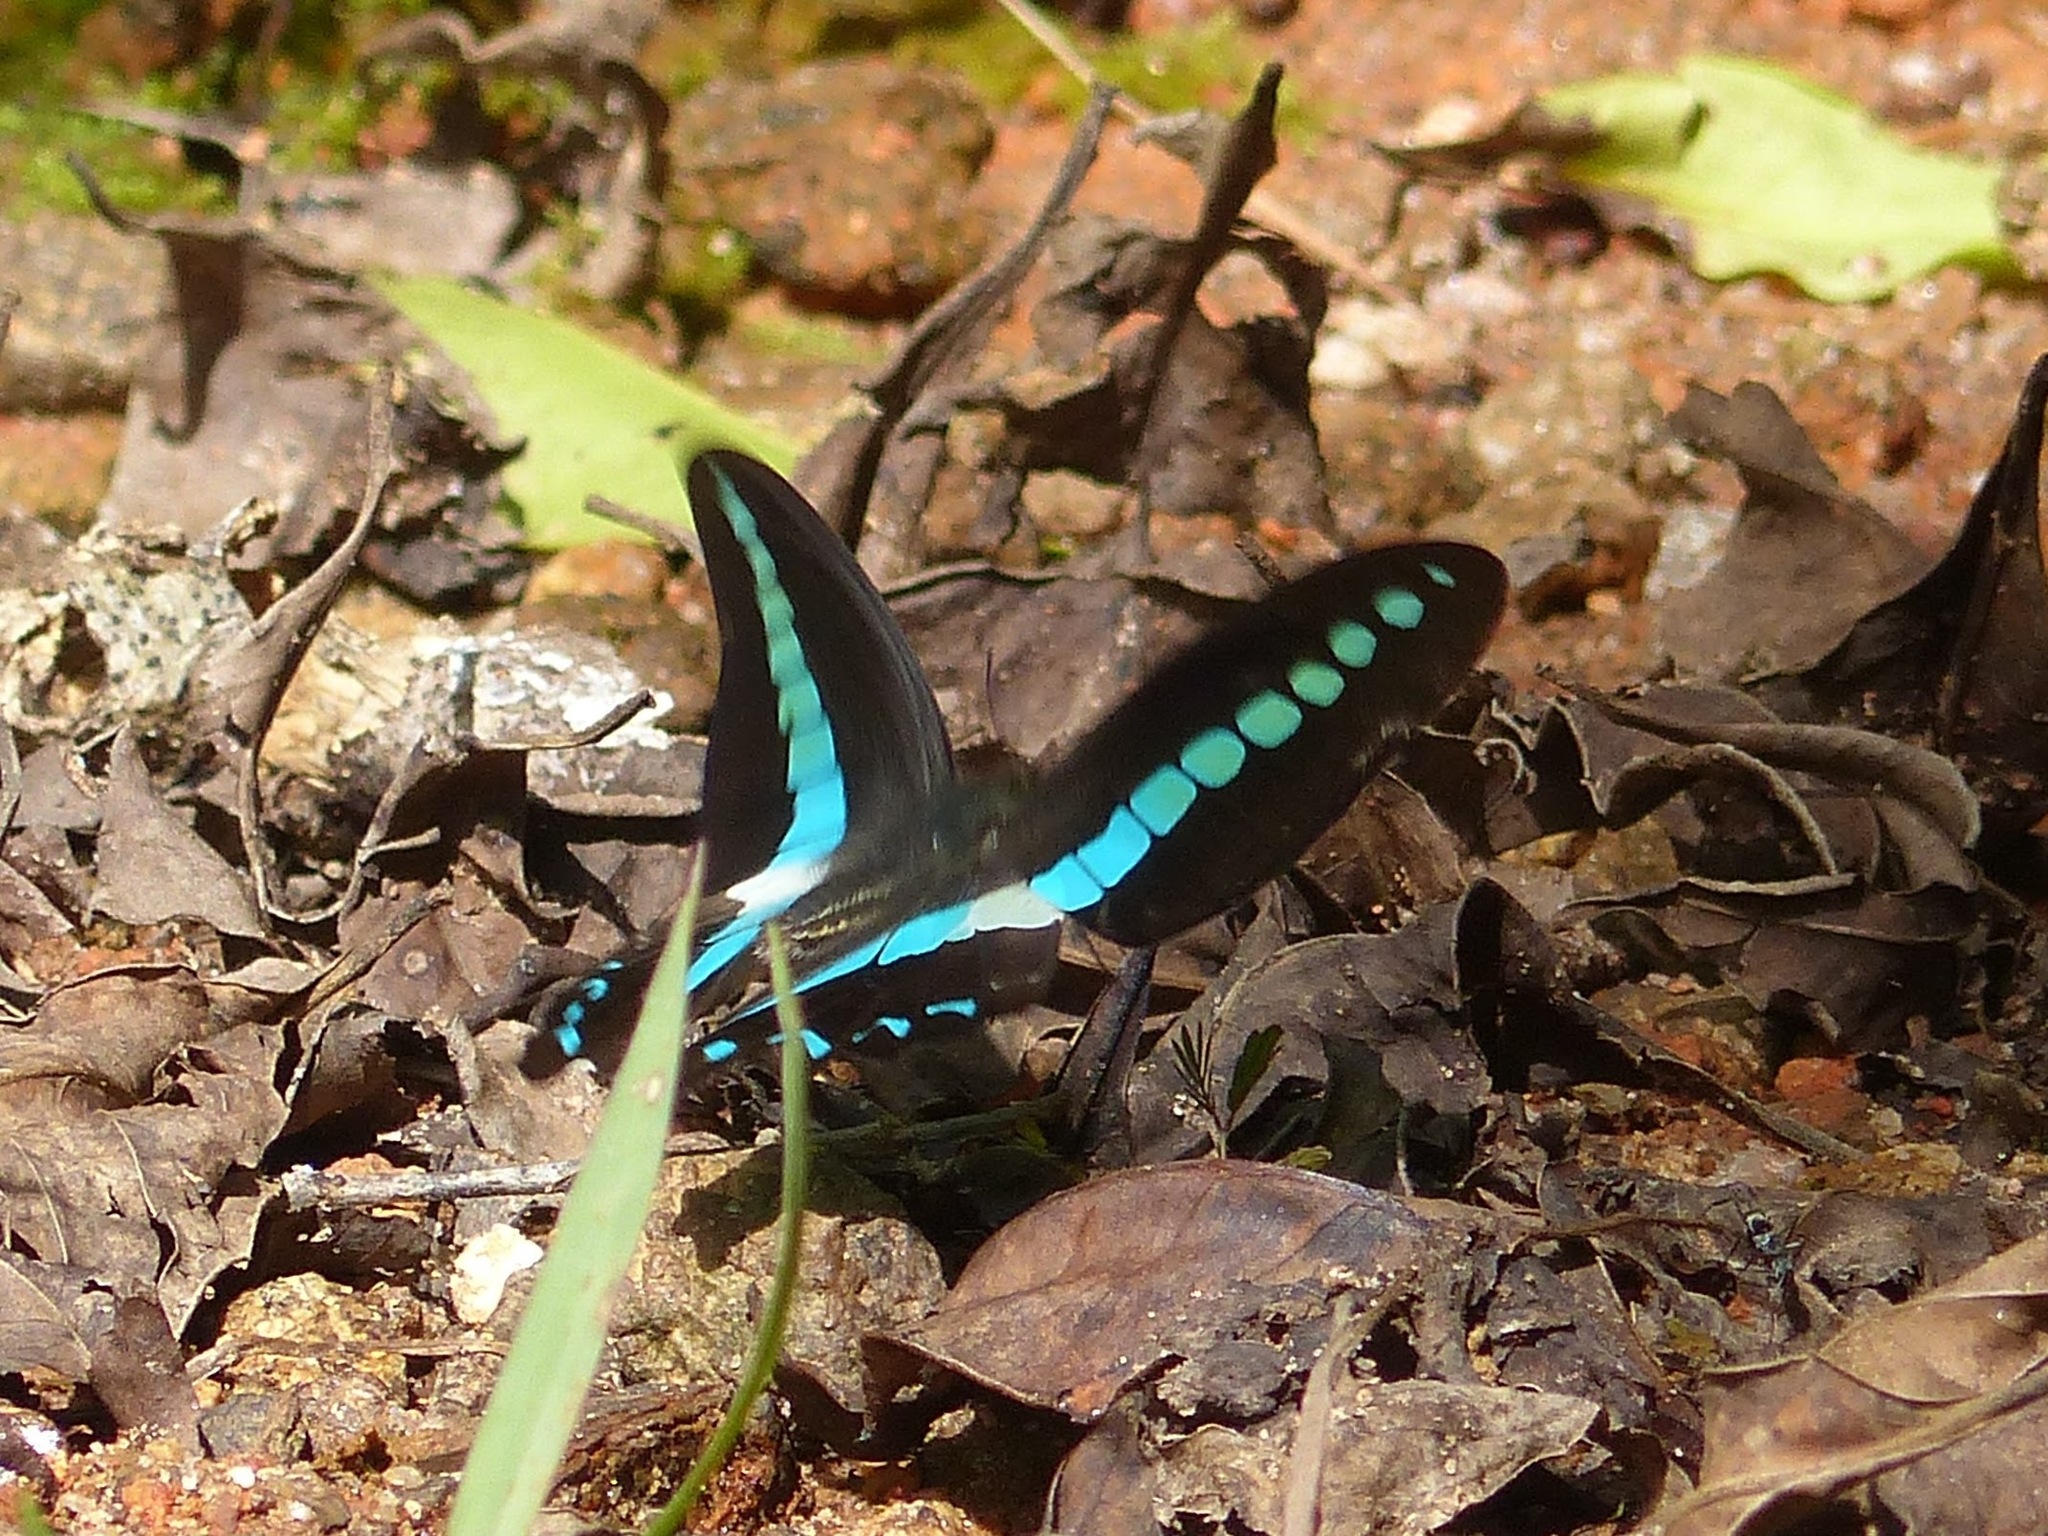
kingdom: Animalia
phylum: Arthropoda
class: Insecta
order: Lepidoptera
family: Papilionidae
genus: Graphium
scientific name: Graphium
